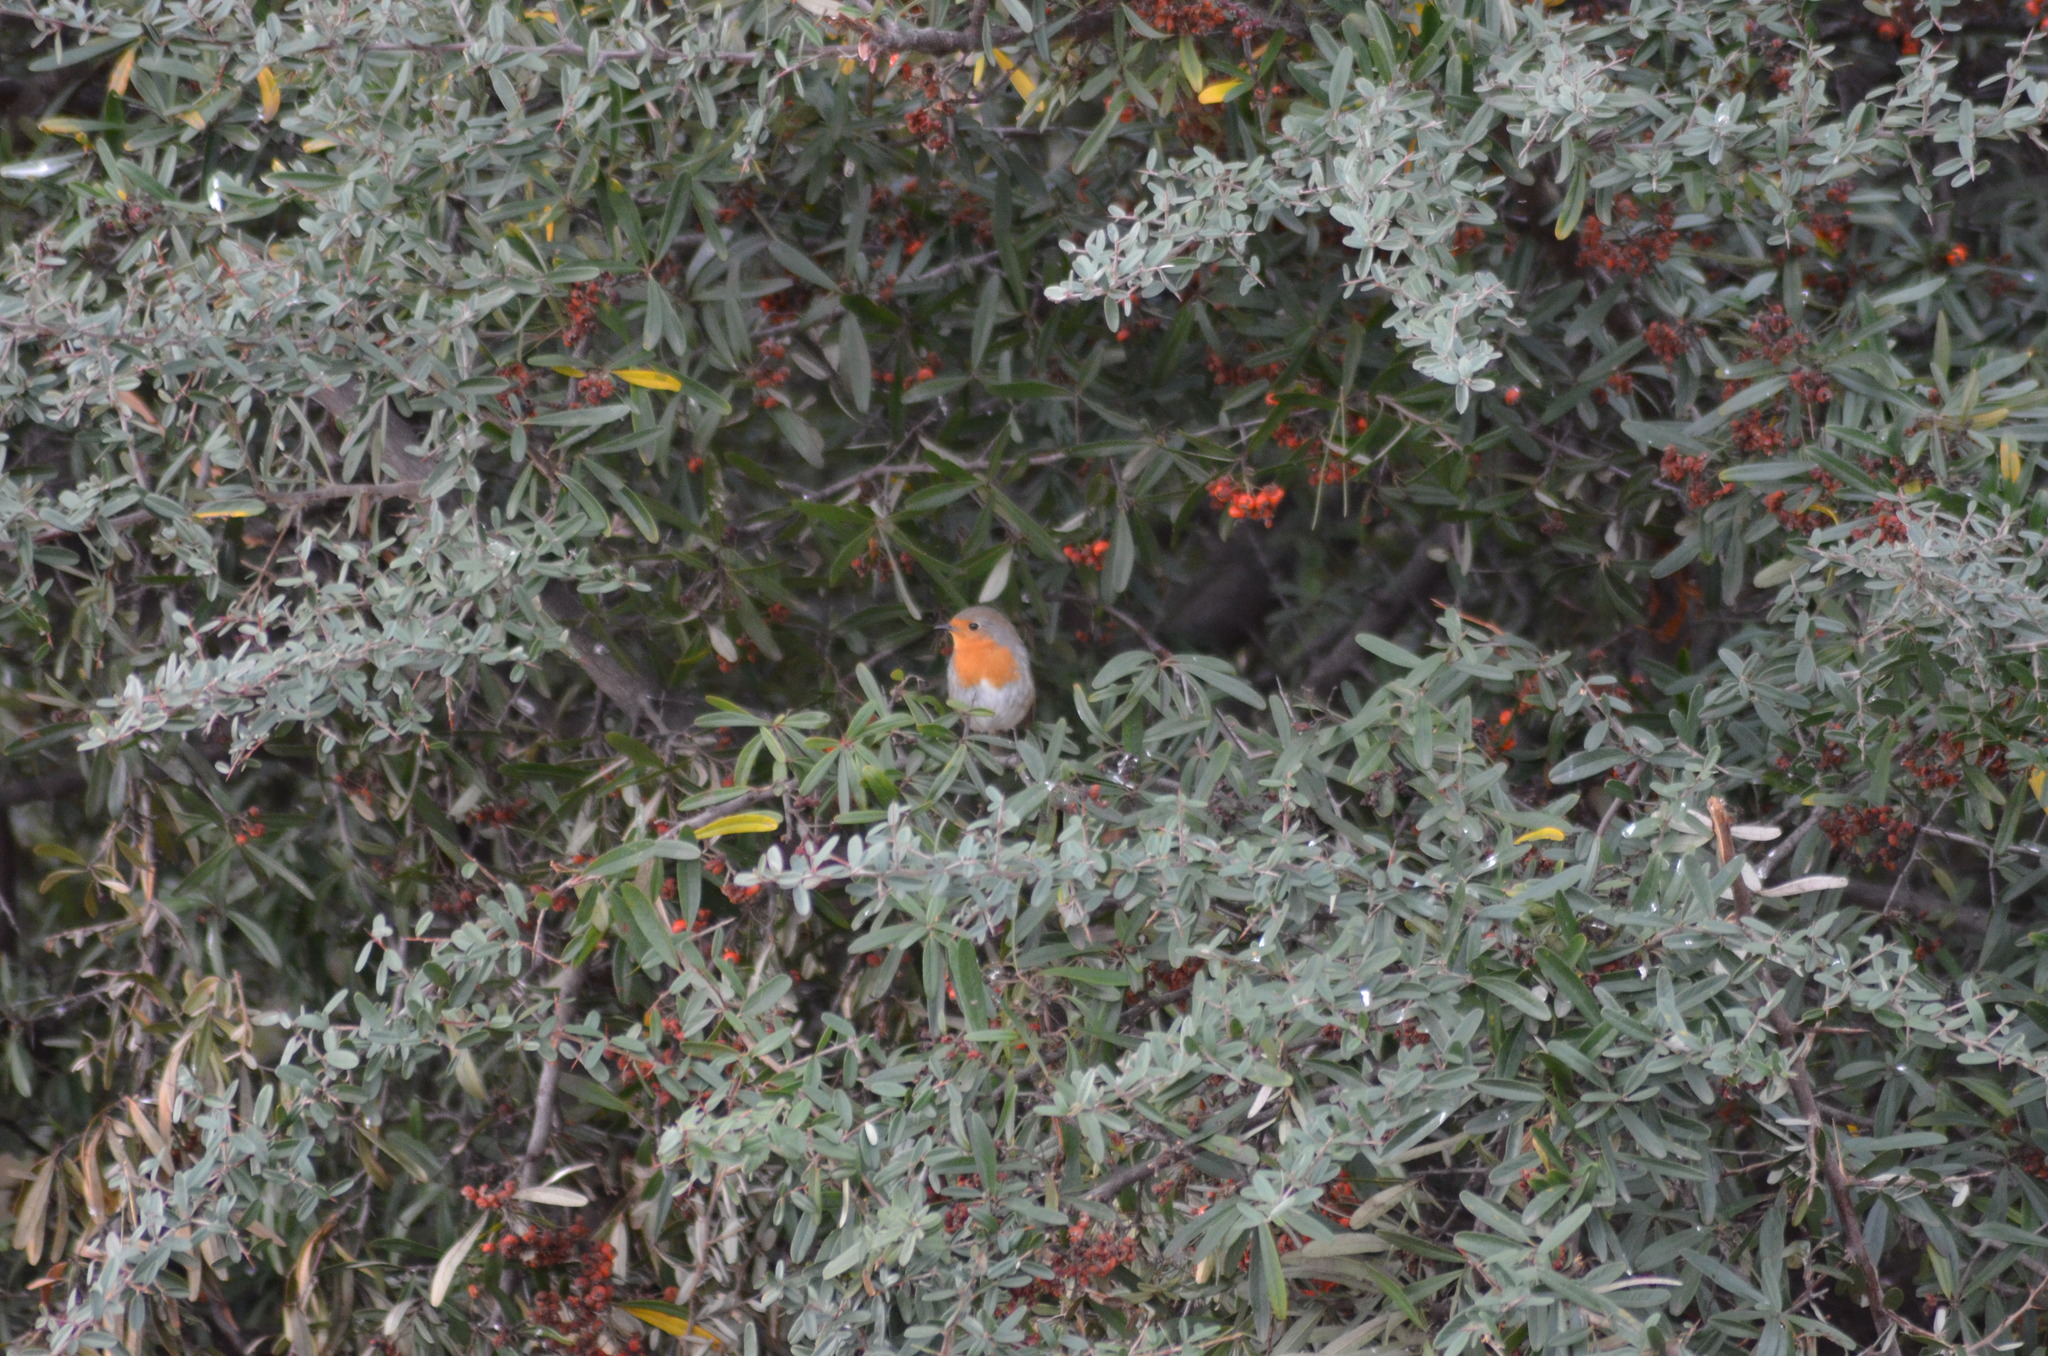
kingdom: Animalia
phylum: Chordata
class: Aves
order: Passeriformes
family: Muscicapidae
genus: Erithacus
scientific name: Erithacus rubecula
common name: European robin
